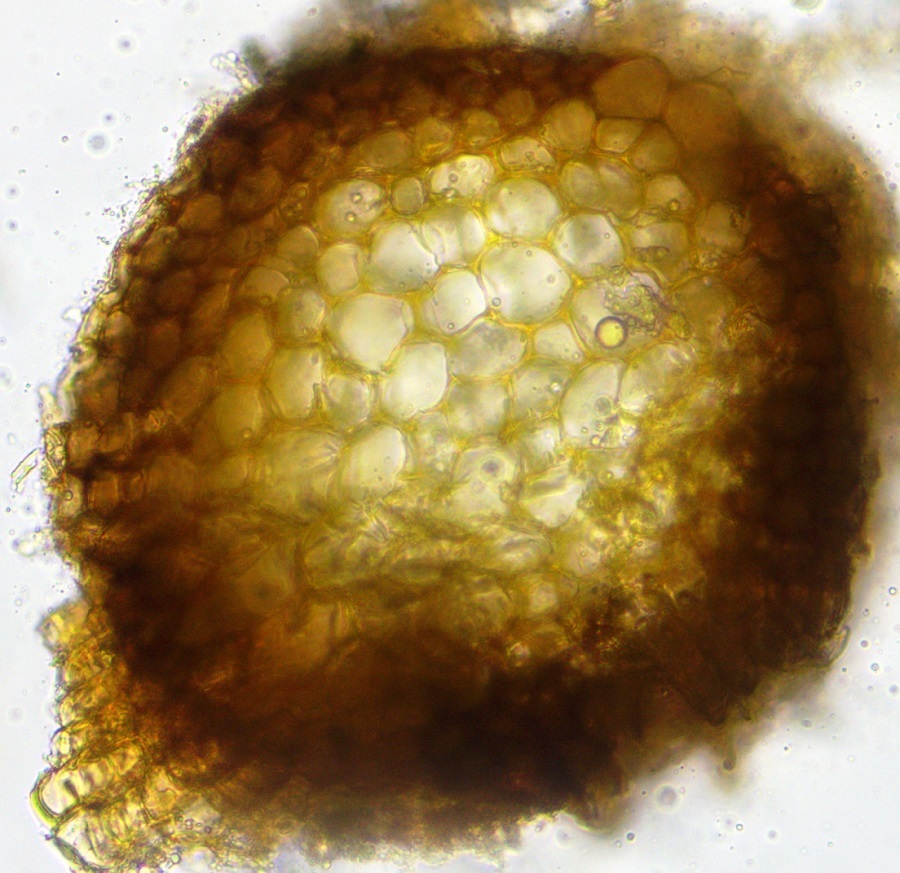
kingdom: Plantae
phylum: Bryophyta
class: Bryopsida
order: Pottiales
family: Pottiaceae
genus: Syntrichia
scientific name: Syntrichia caninervis
